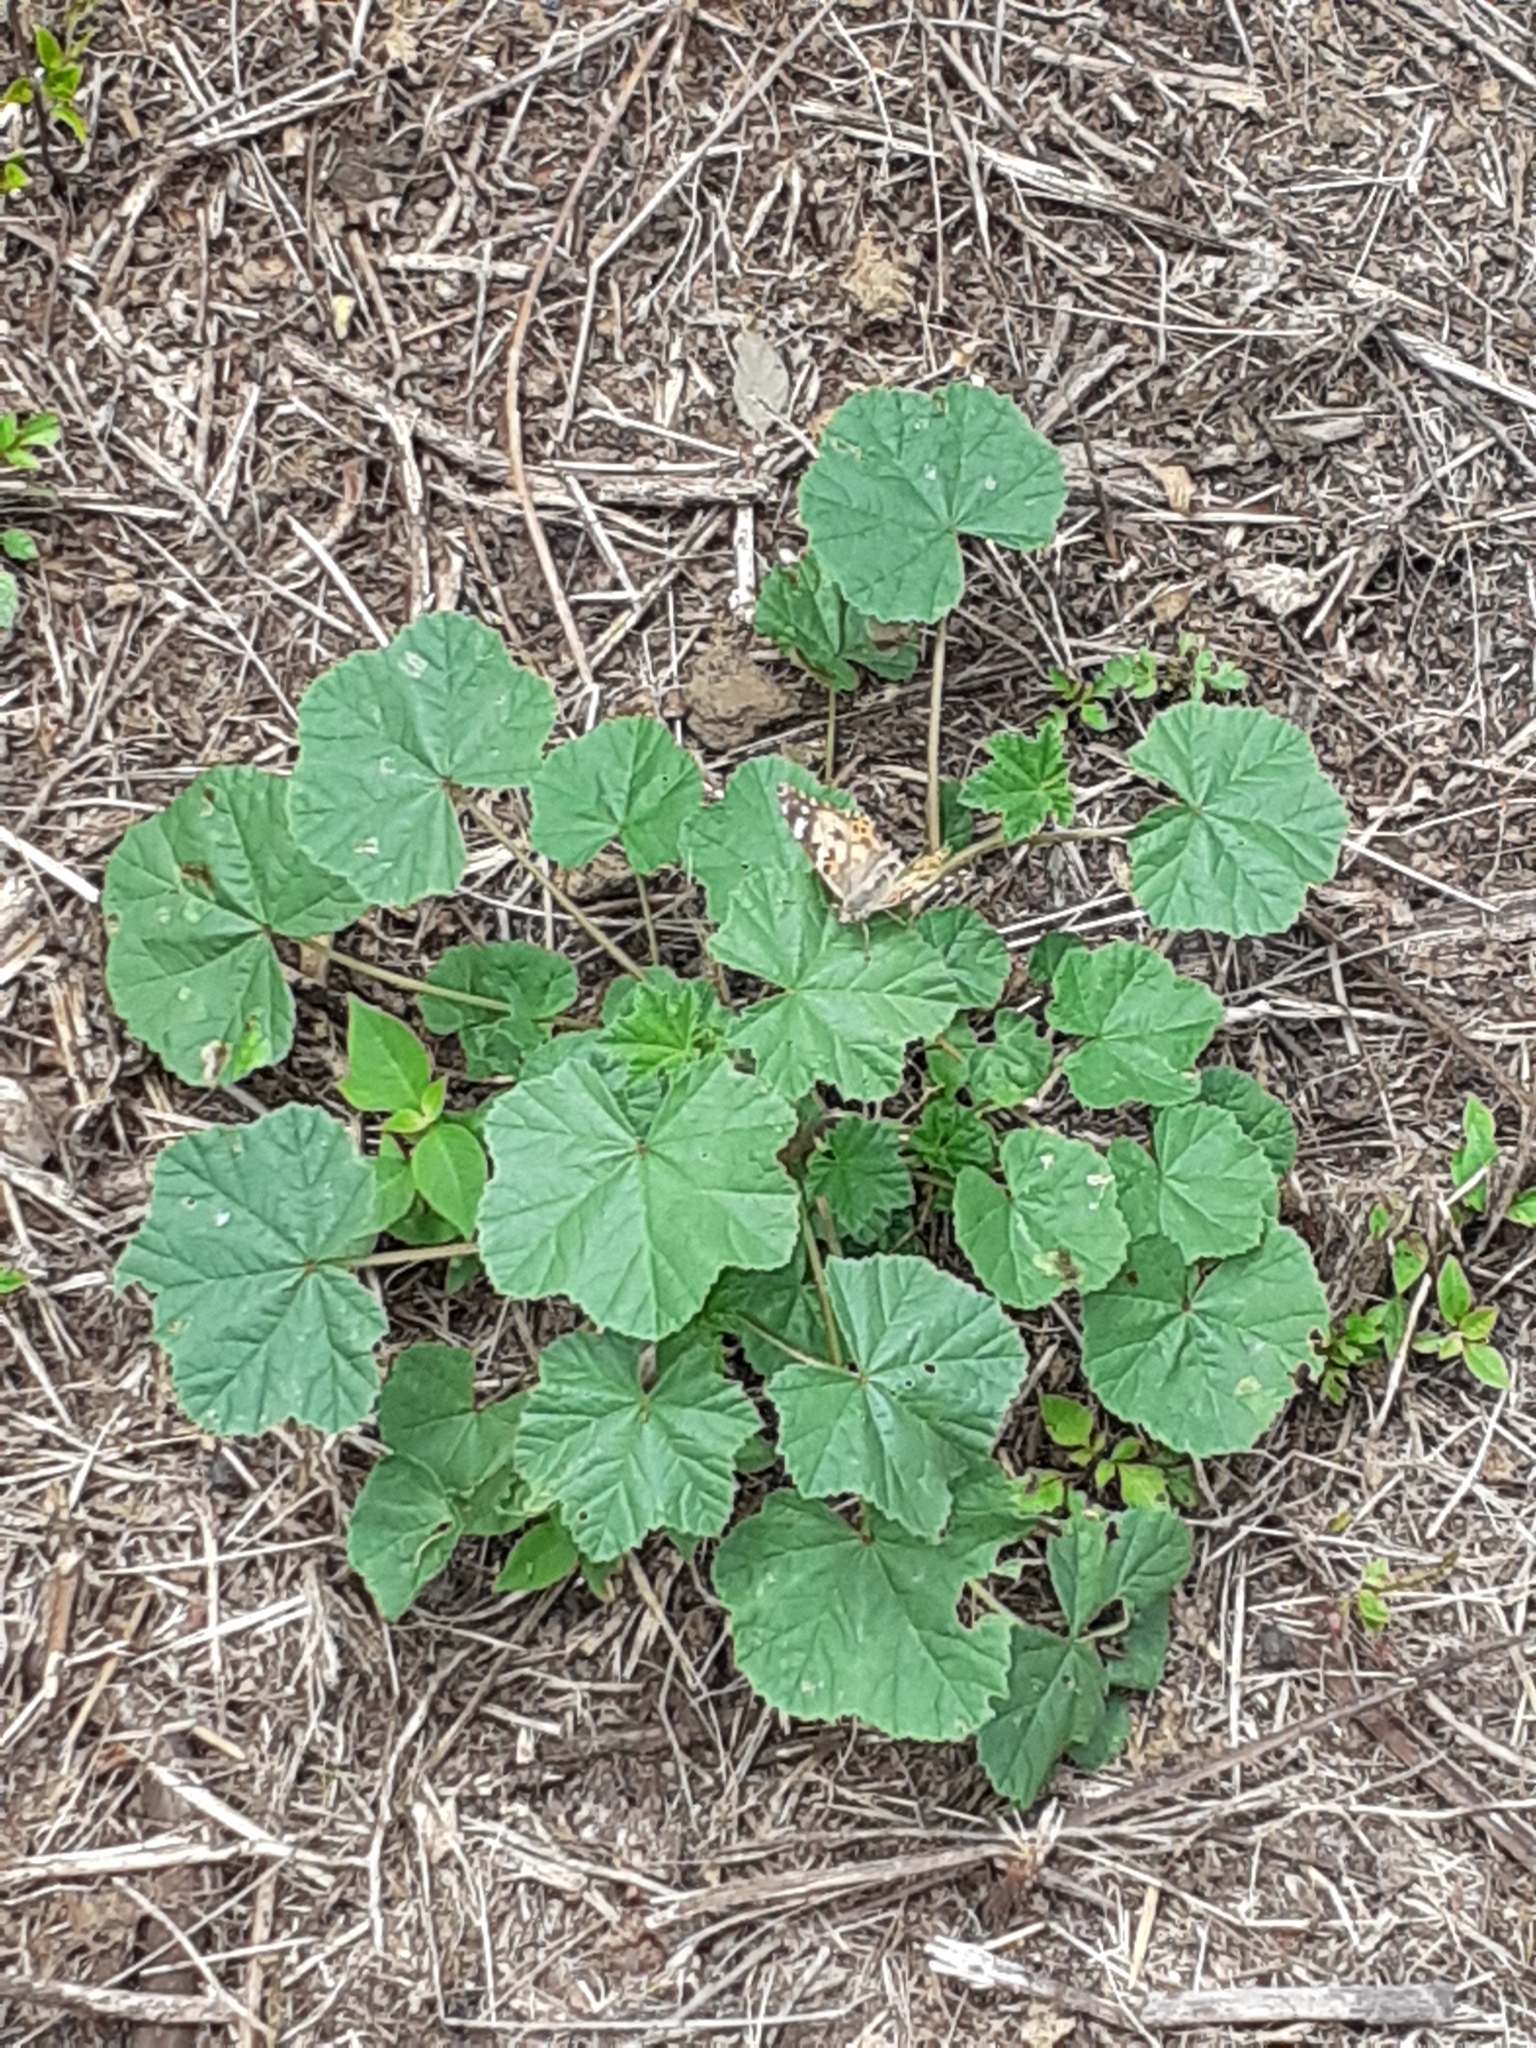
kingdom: Animalia
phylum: Arthropoda
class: Insecta
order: Lepidoptera
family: Nymphalidae
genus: Vanessa
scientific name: Vanessa cardui
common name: Painted lady
